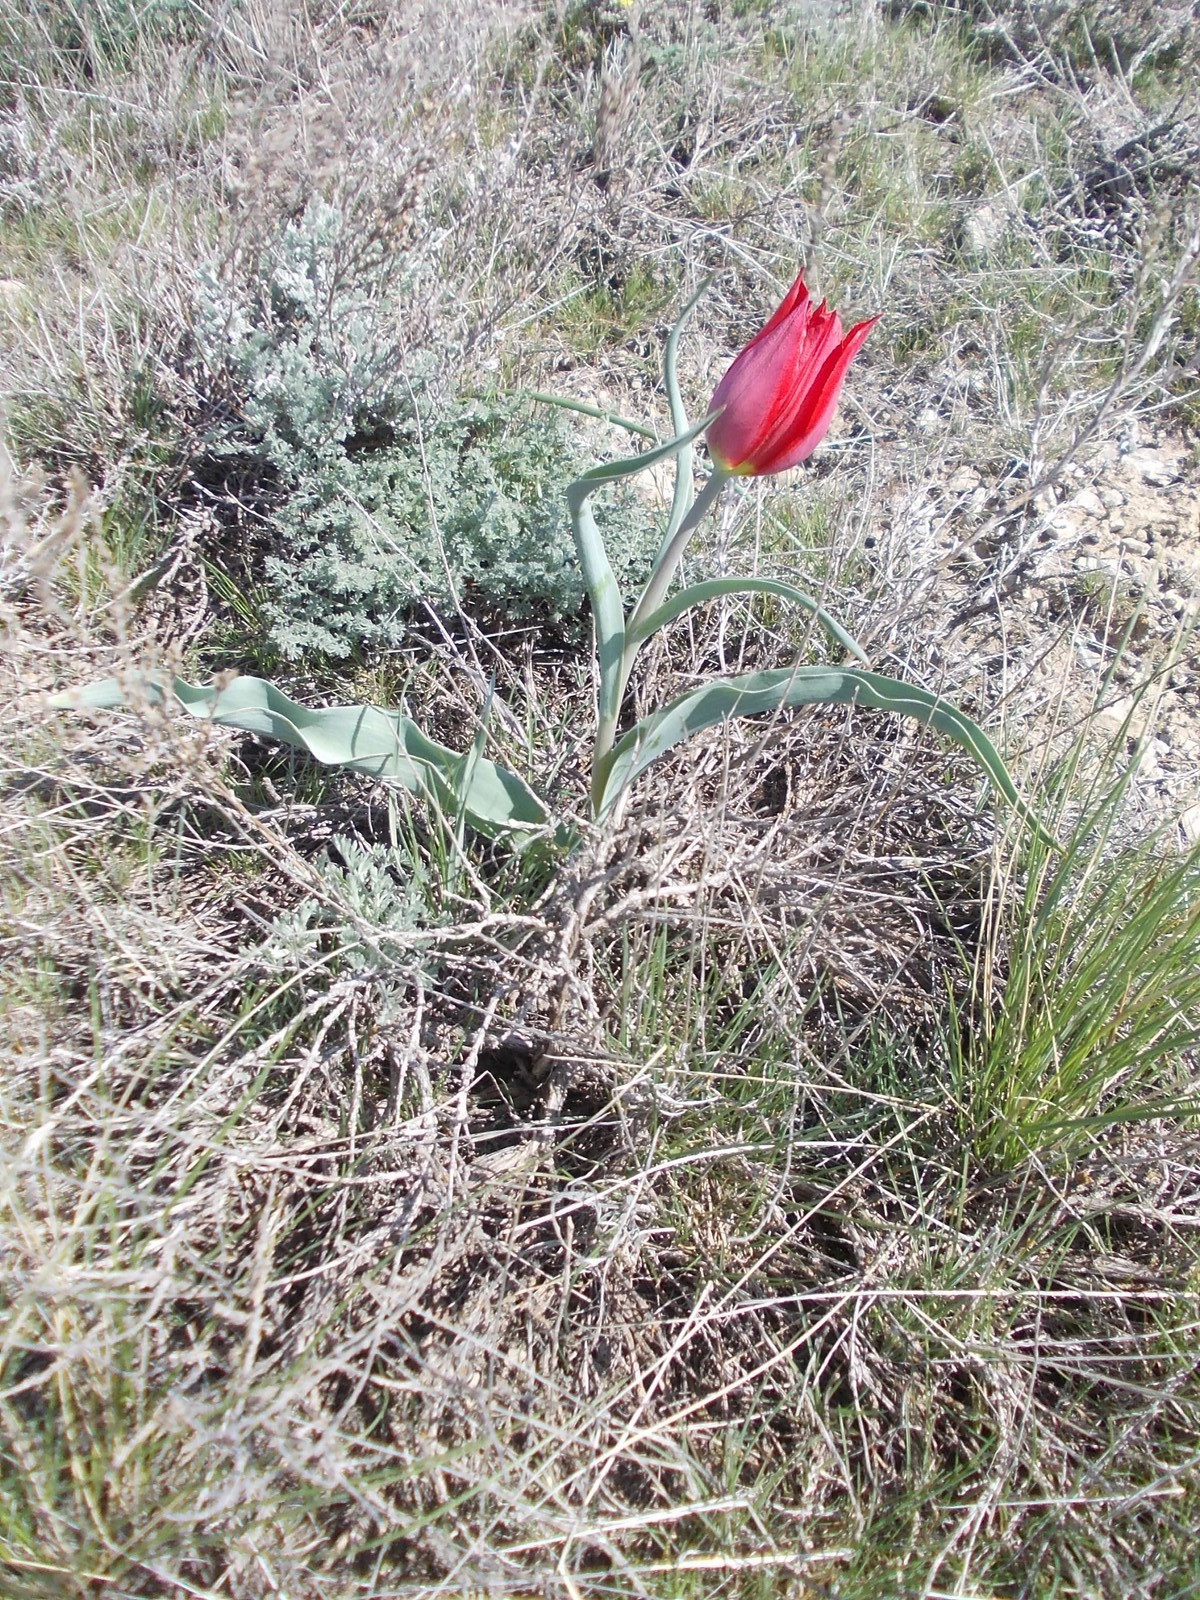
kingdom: Plantae
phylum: Tracheophyta
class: Liliopsida
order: Liliales
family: Liliaceae
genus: Tulipa
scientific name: Tulipa suaveolens
